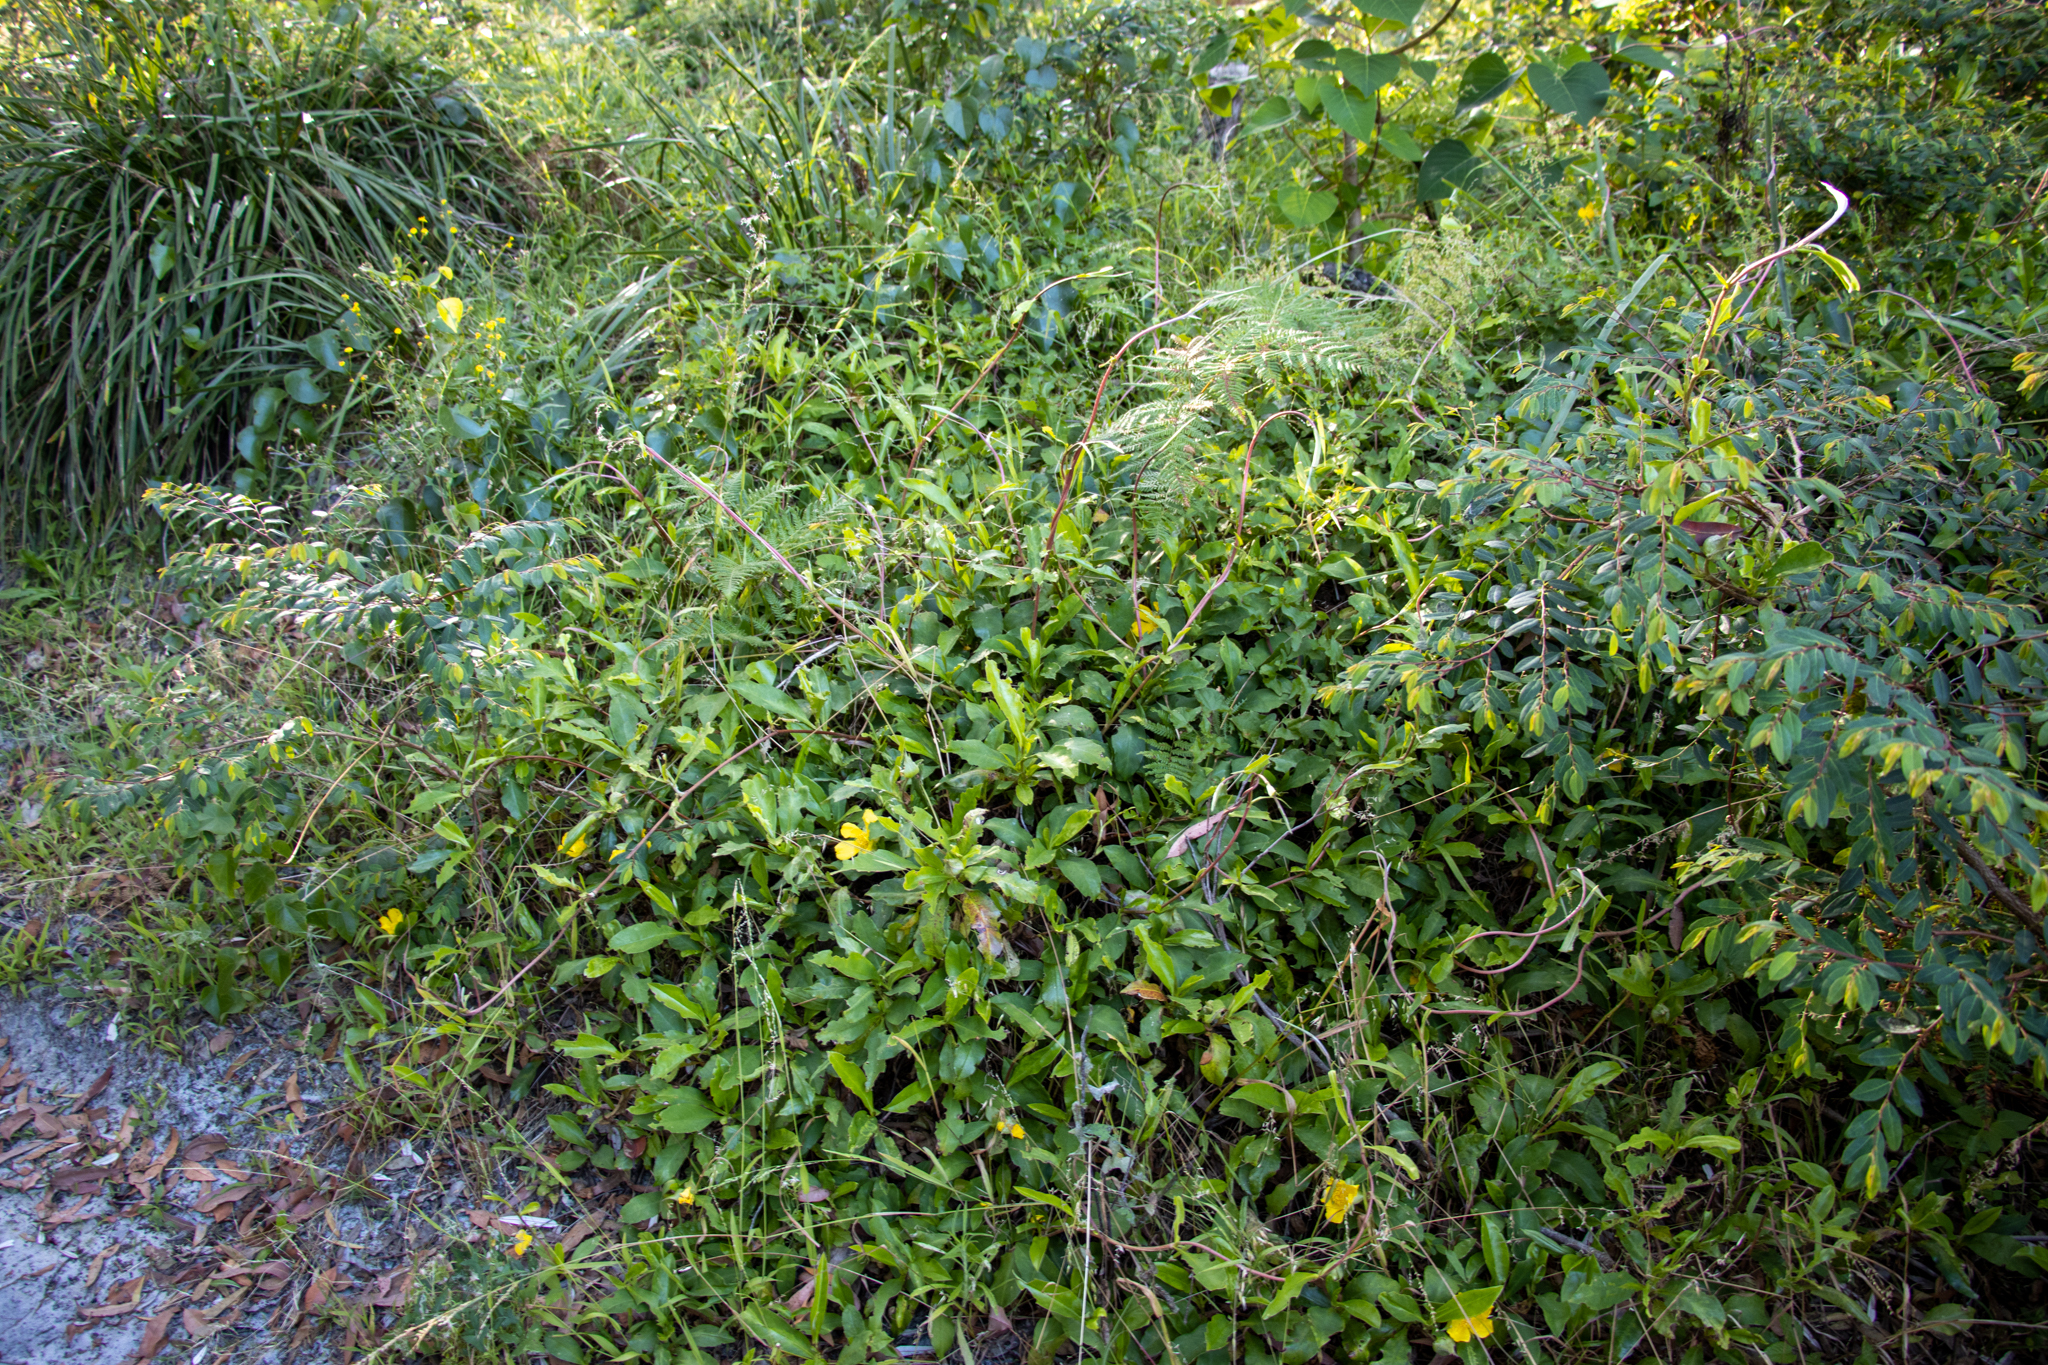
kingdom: Plantae
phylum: Tracheophyta
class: Magnoliopsida
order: Dilleniales
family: Dilleniaceae
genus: Hibbertia
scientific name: Hibbertia scandens
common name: Climbing guinea-flower
